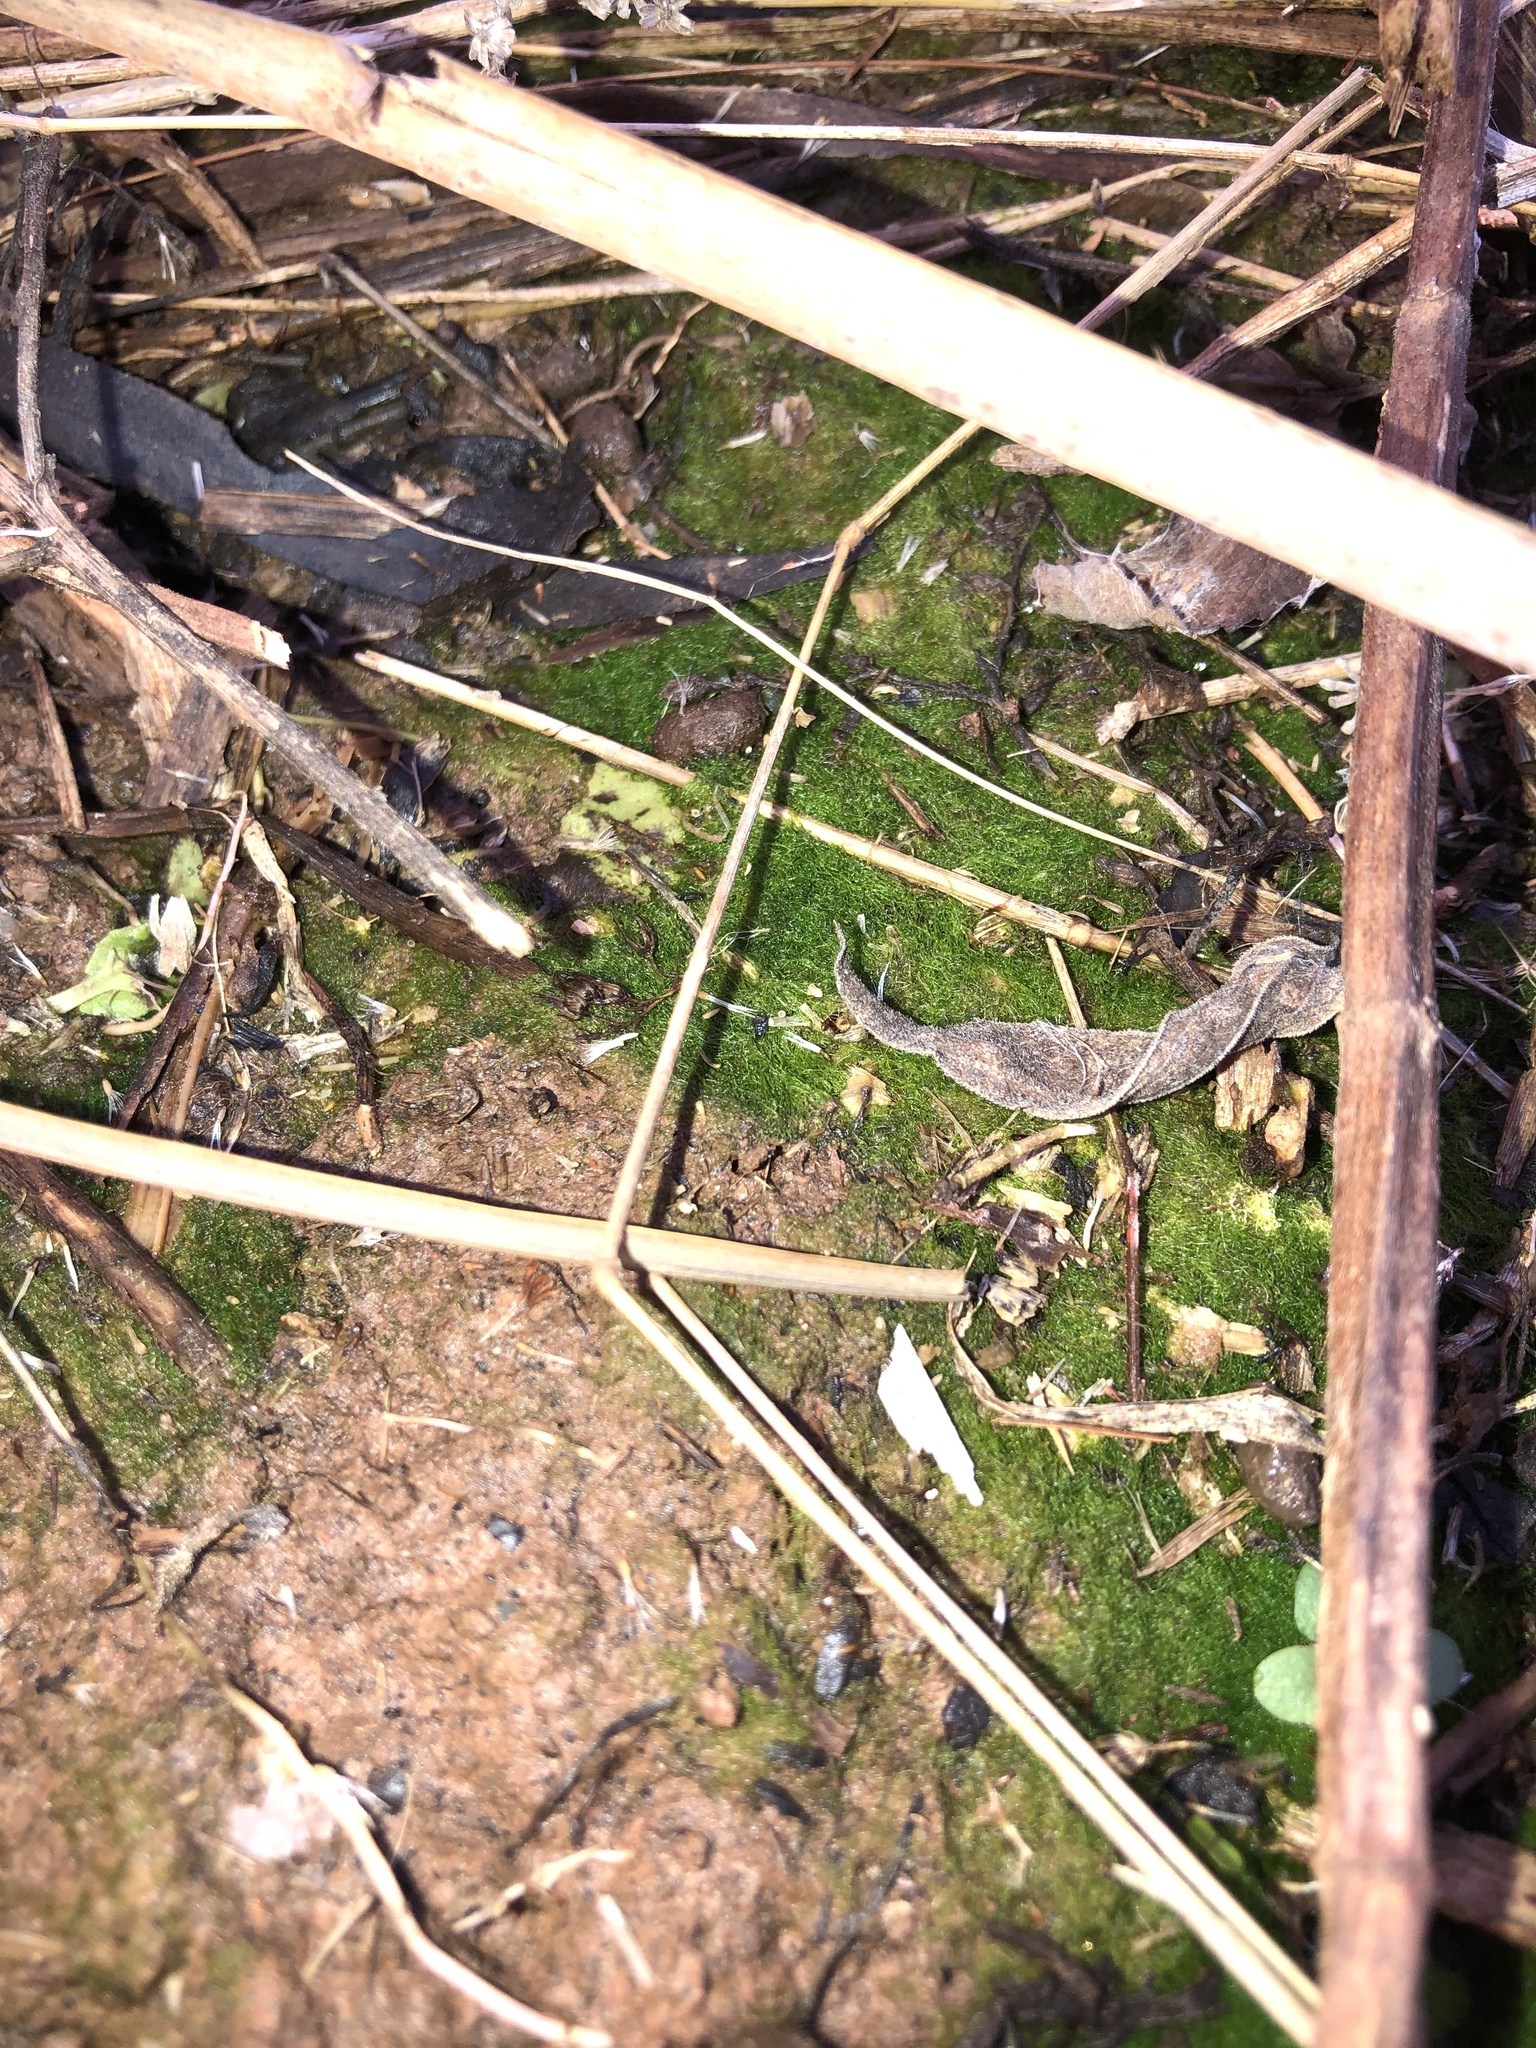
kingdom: Chromista
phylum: Ochrophyta
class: Xanthophyceae
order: Vaucheriales
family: Vaucheriaceae
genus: Vaucheria
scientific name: Vaucheria
